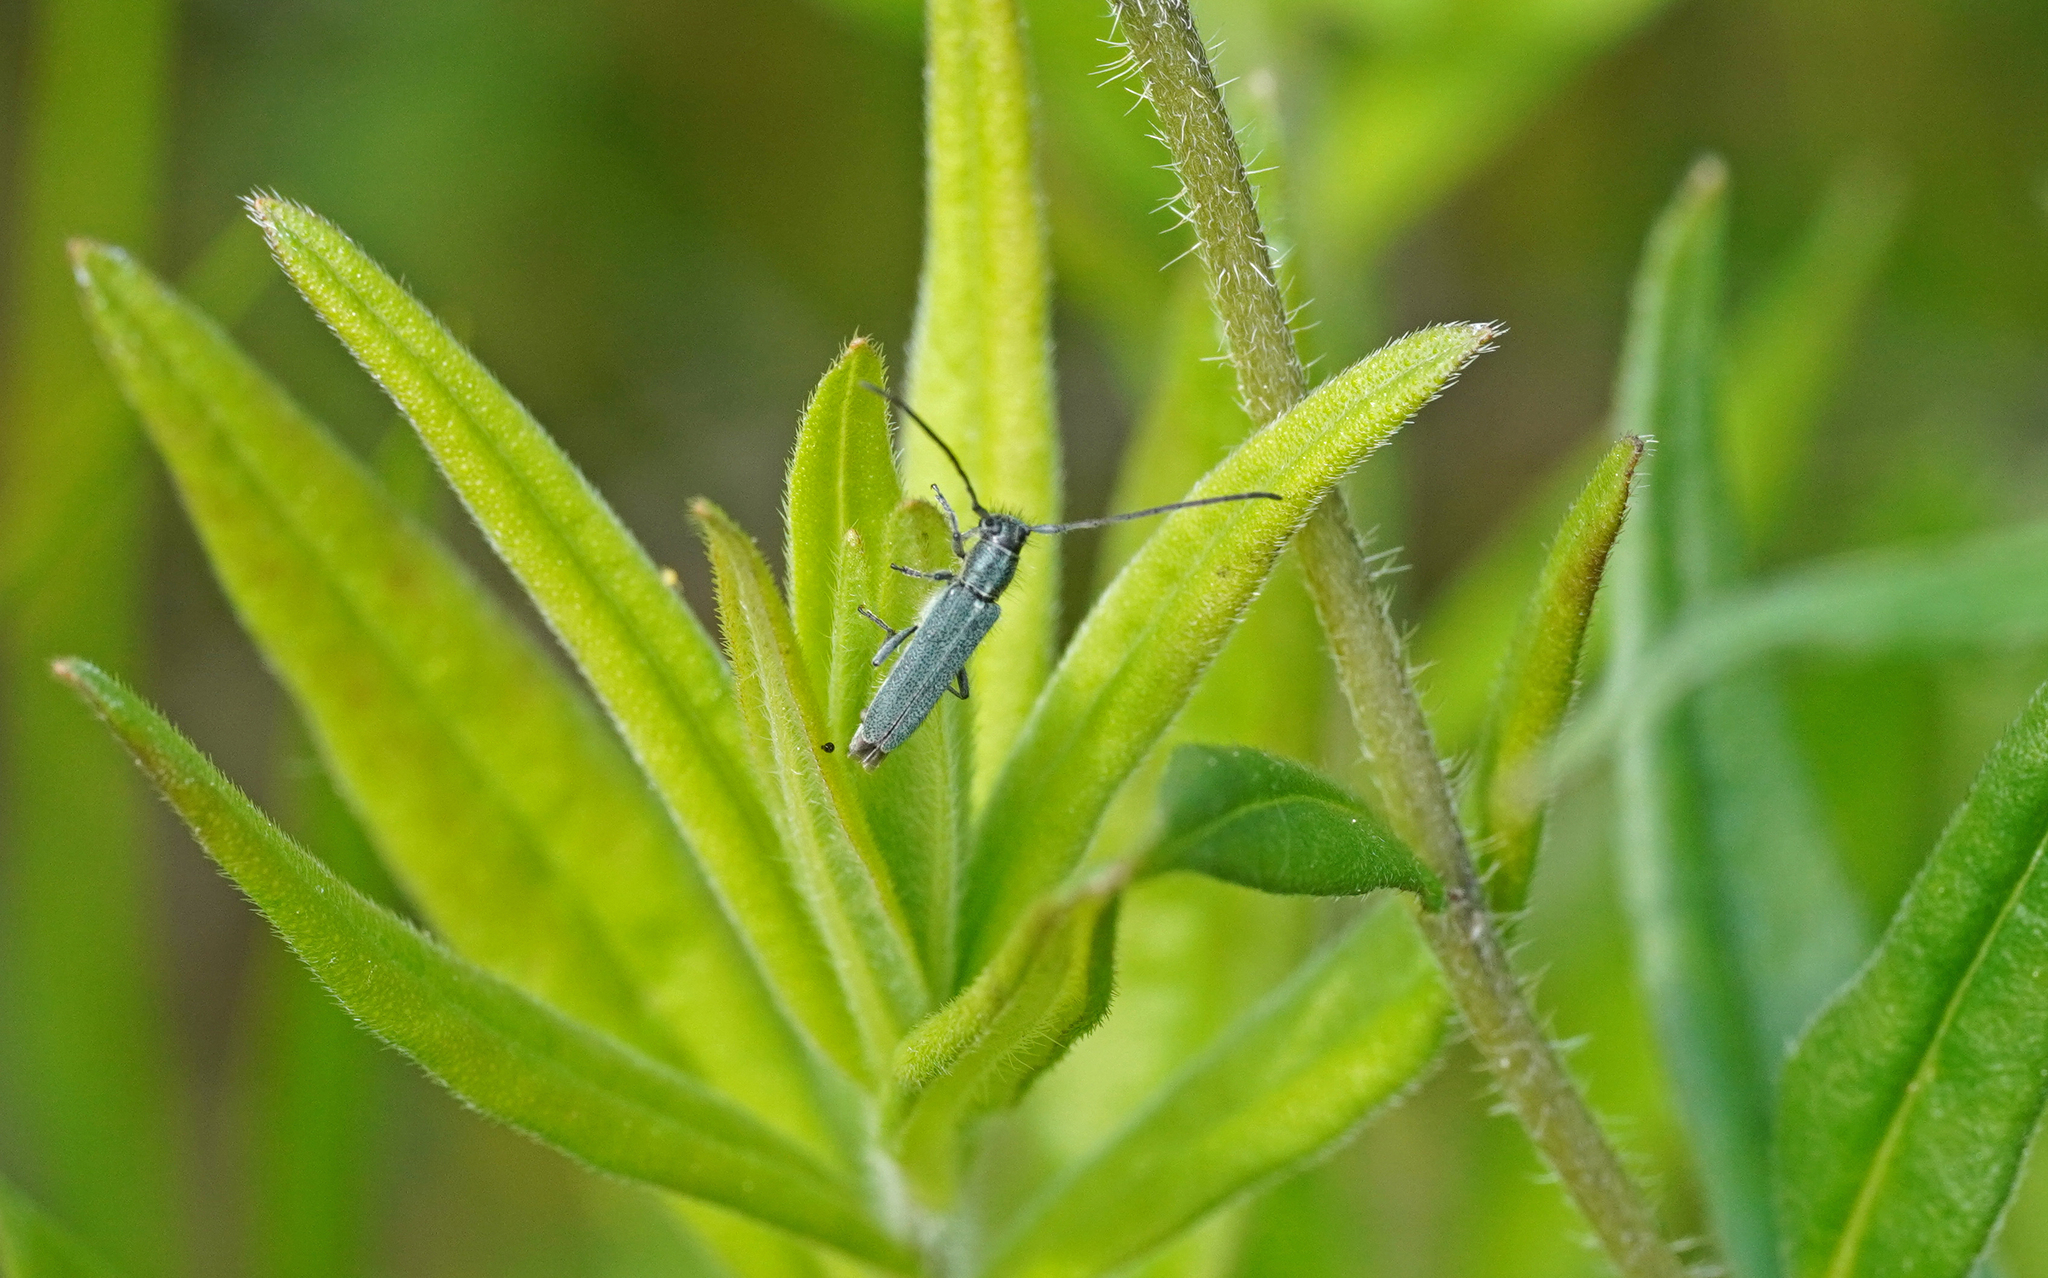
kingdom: Animalia
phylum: Arthropoda
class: Insecta
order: Coleoptera
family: Cerambycidae
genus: Phytoecia
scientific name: Phytoecia coerulescens
